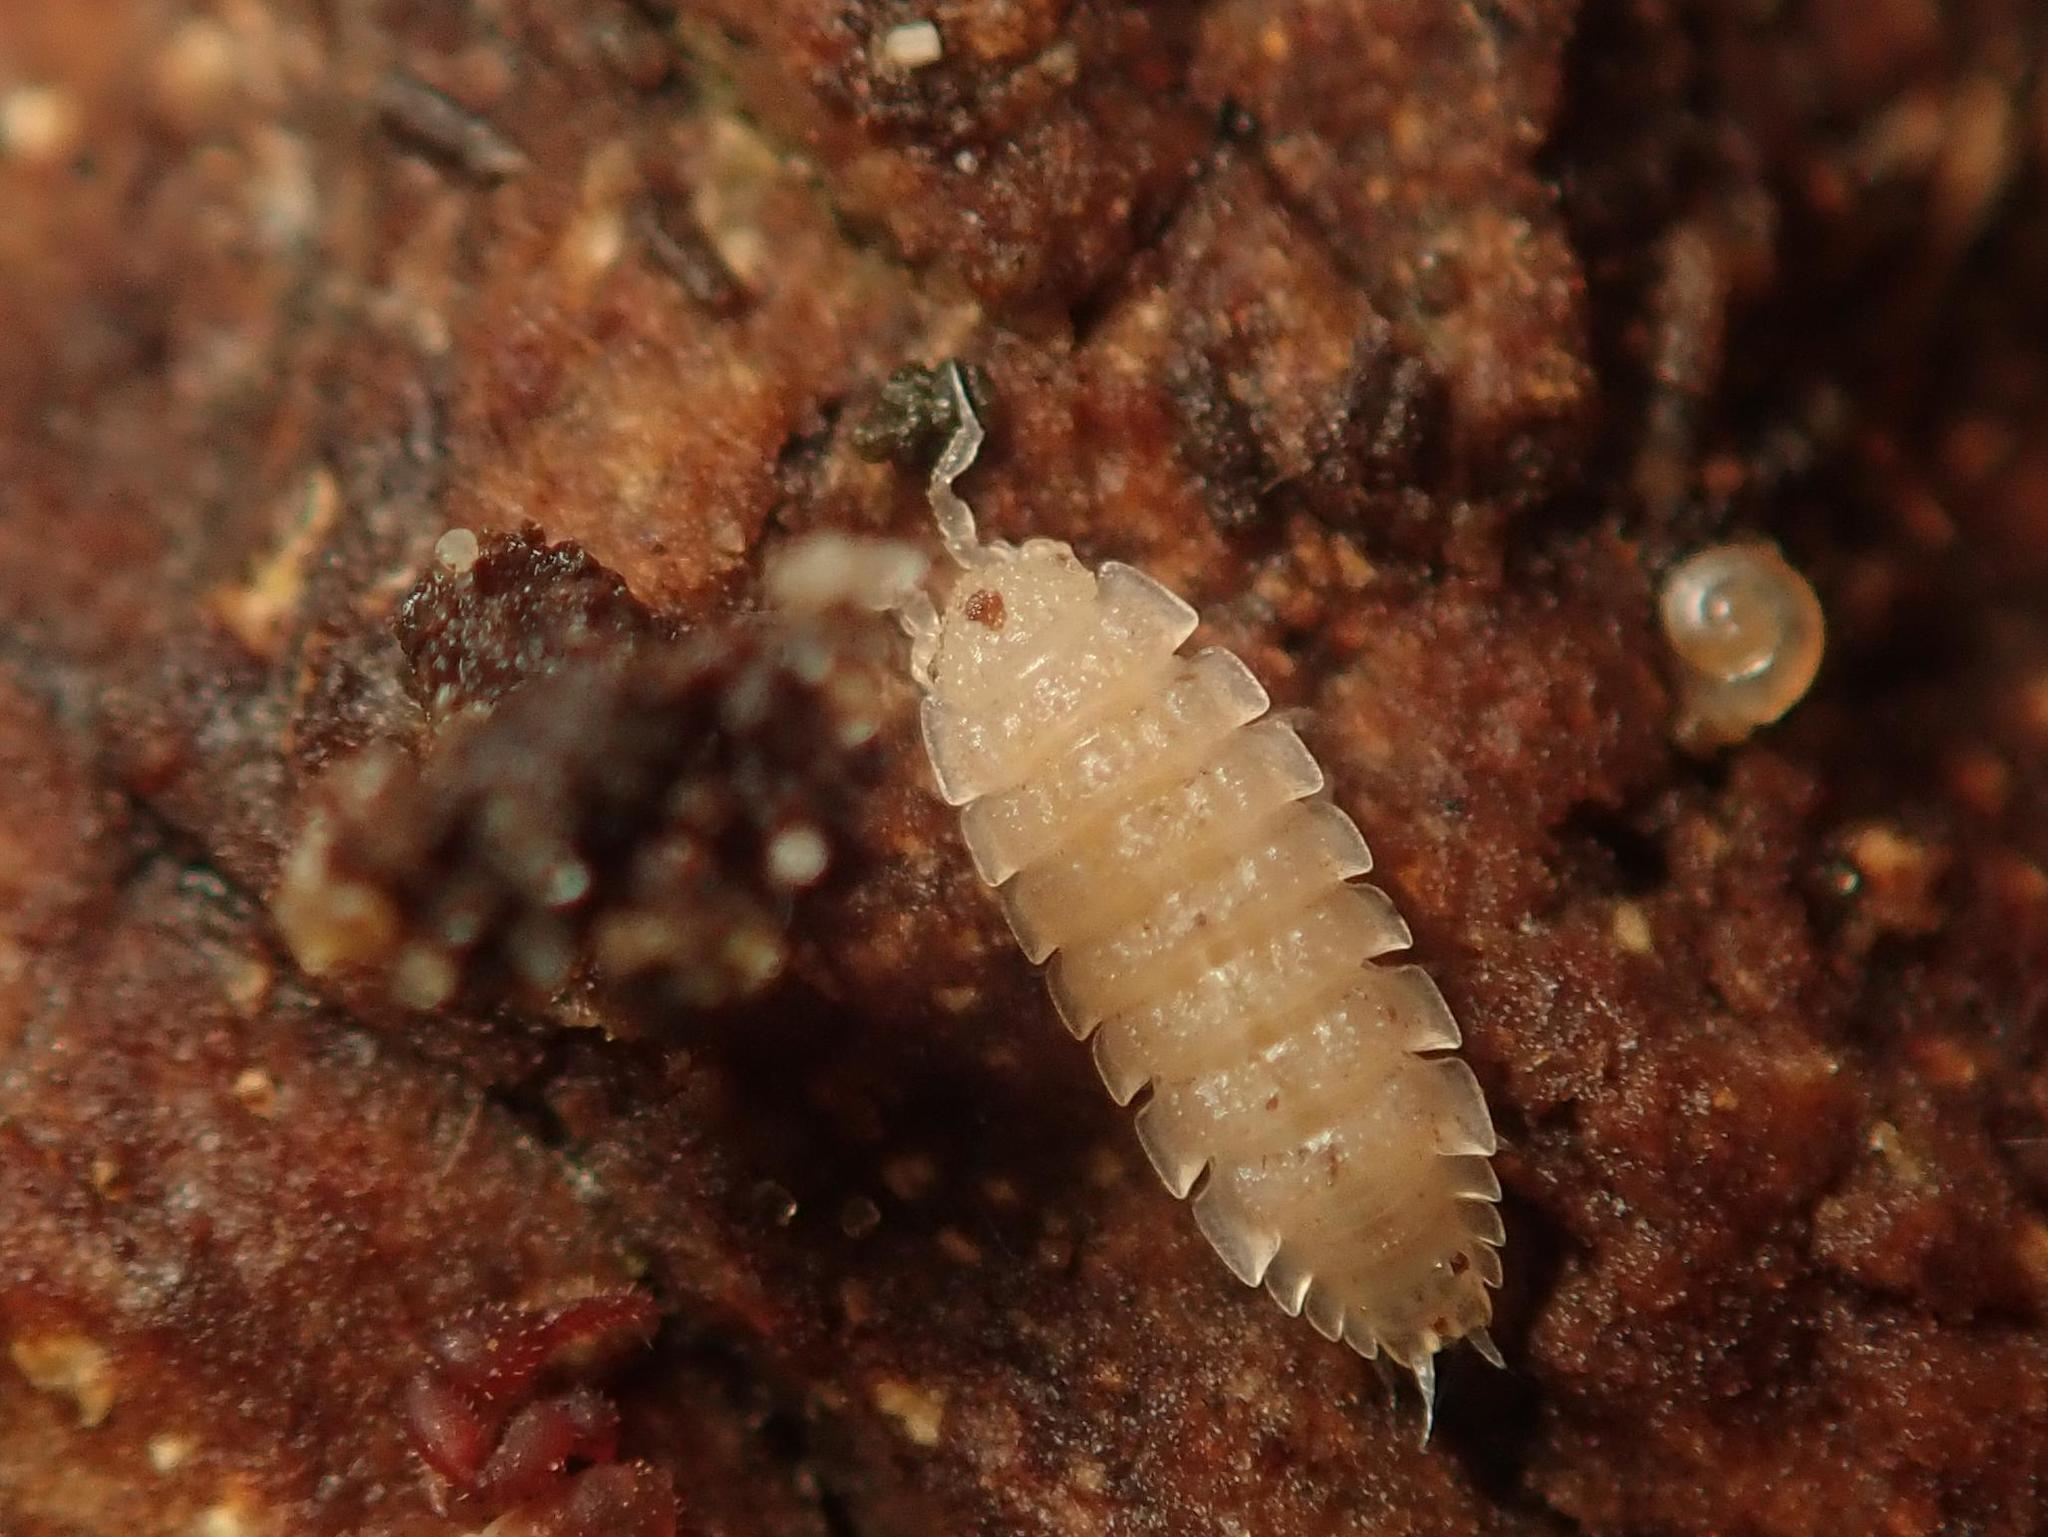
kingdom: Animalia
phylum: Arthropoda
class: Malacostraca
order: Isopoda
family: Trichoniscidae
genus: Haplophthalmus
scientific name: Haplophthalmus danicus
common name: Pillbug
